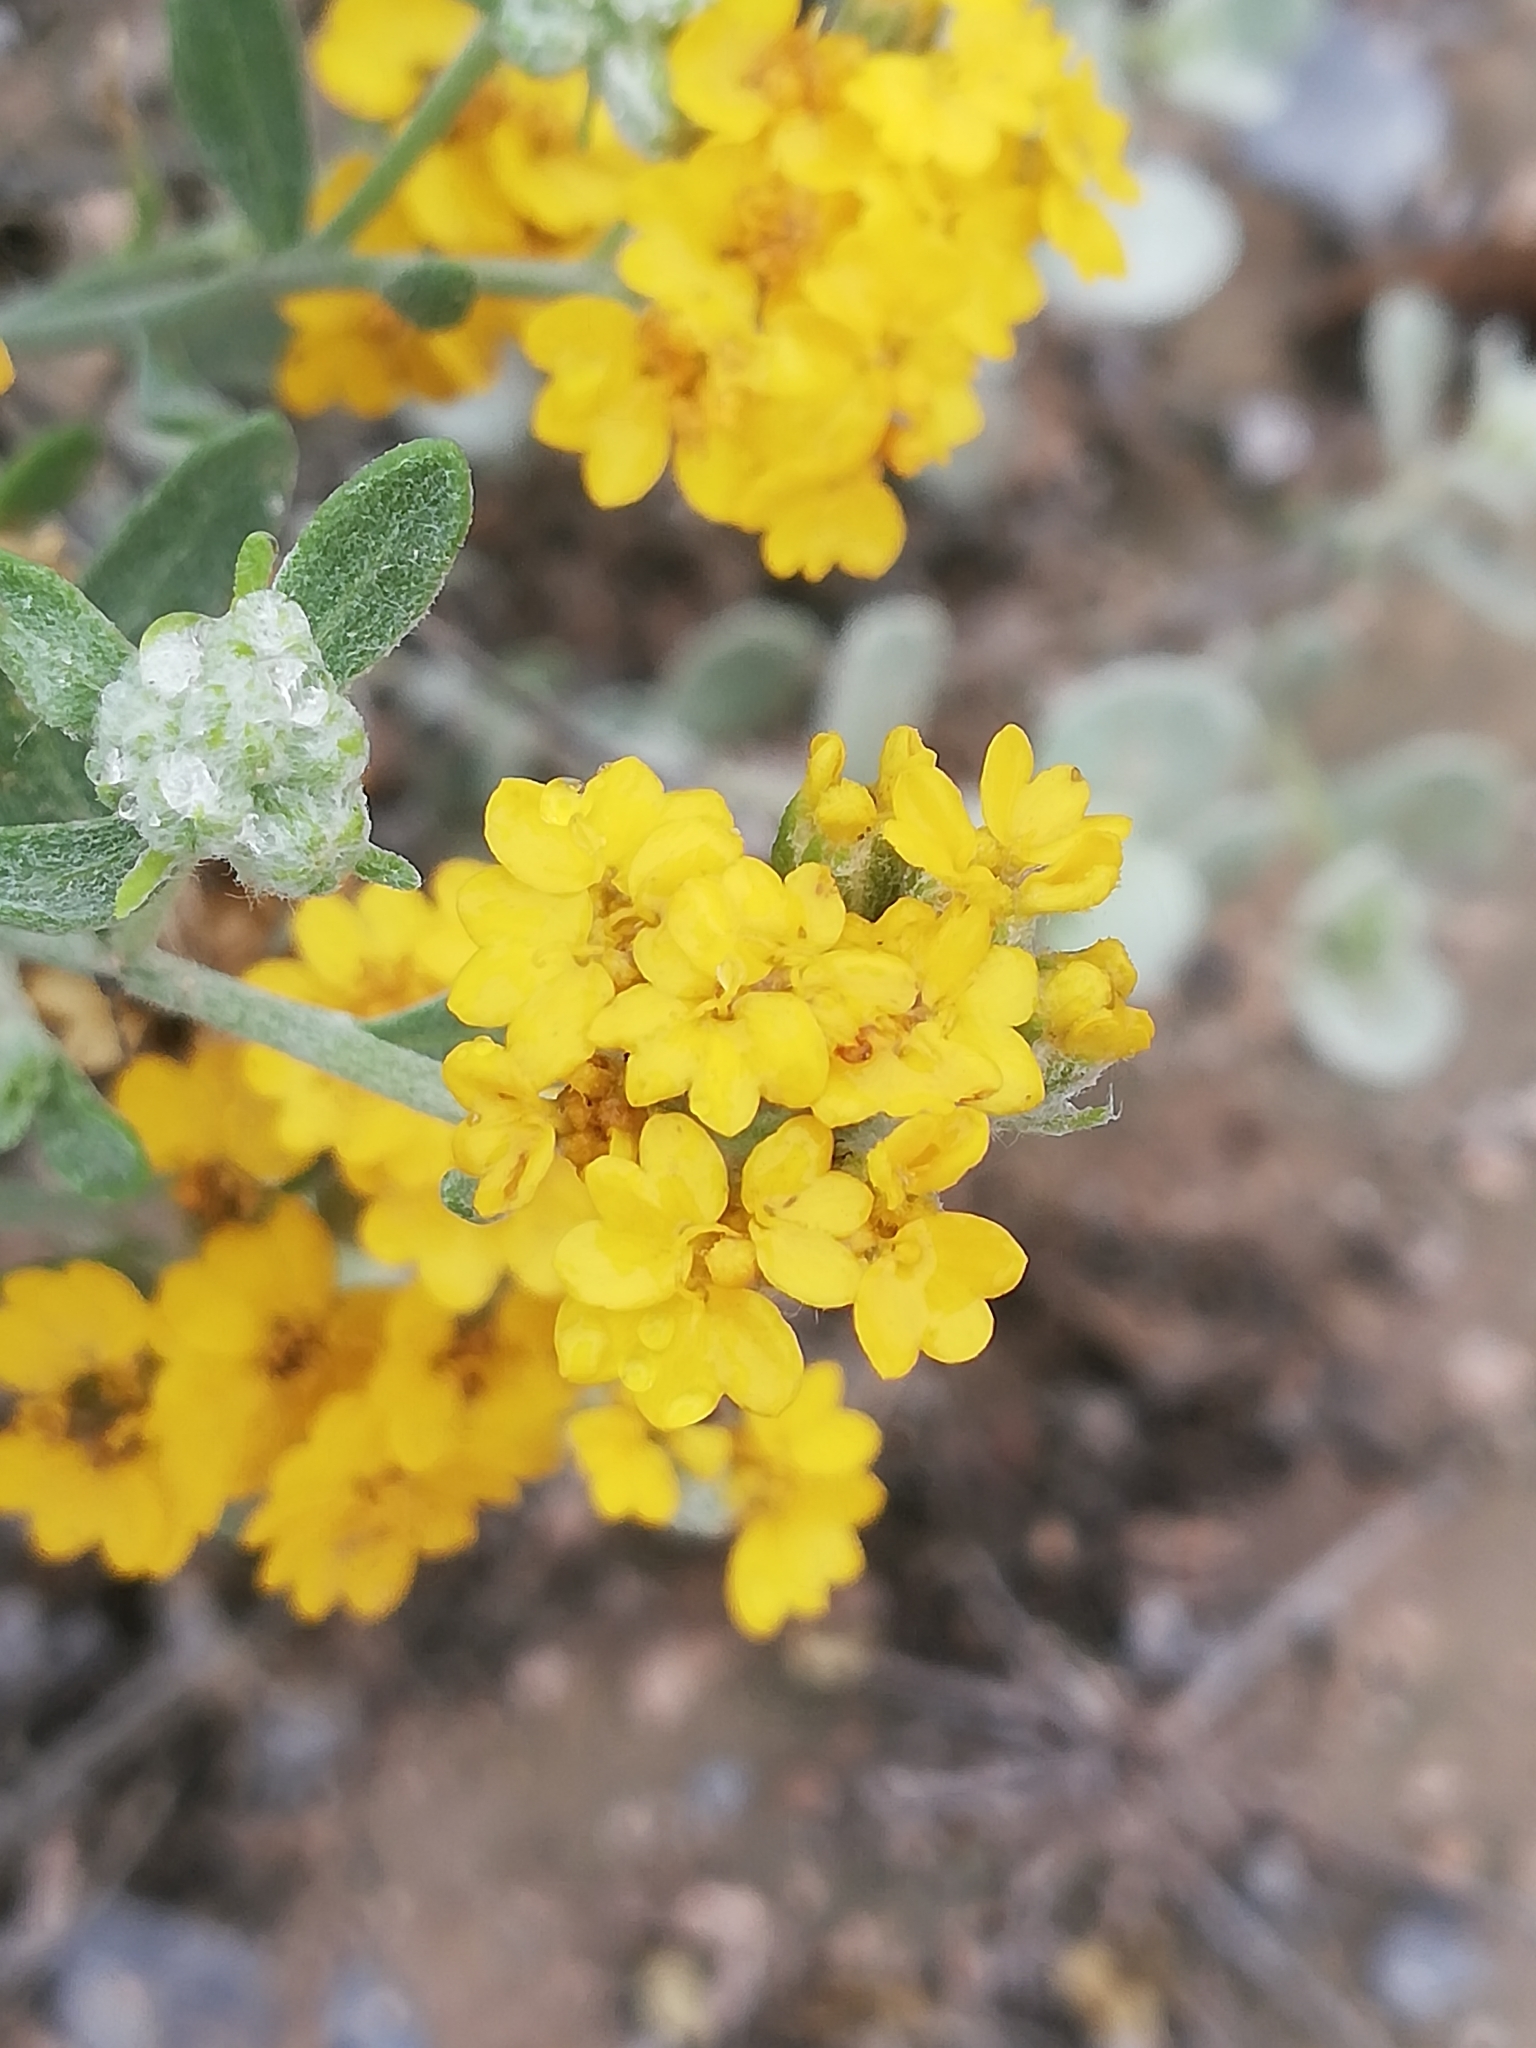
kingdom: Plantae
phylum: Tracheophyta
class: Magnoliopsida
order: Asterales
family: Asteraceae
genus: Psilostrophe
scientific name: Psilostrophe gnaphalioides
